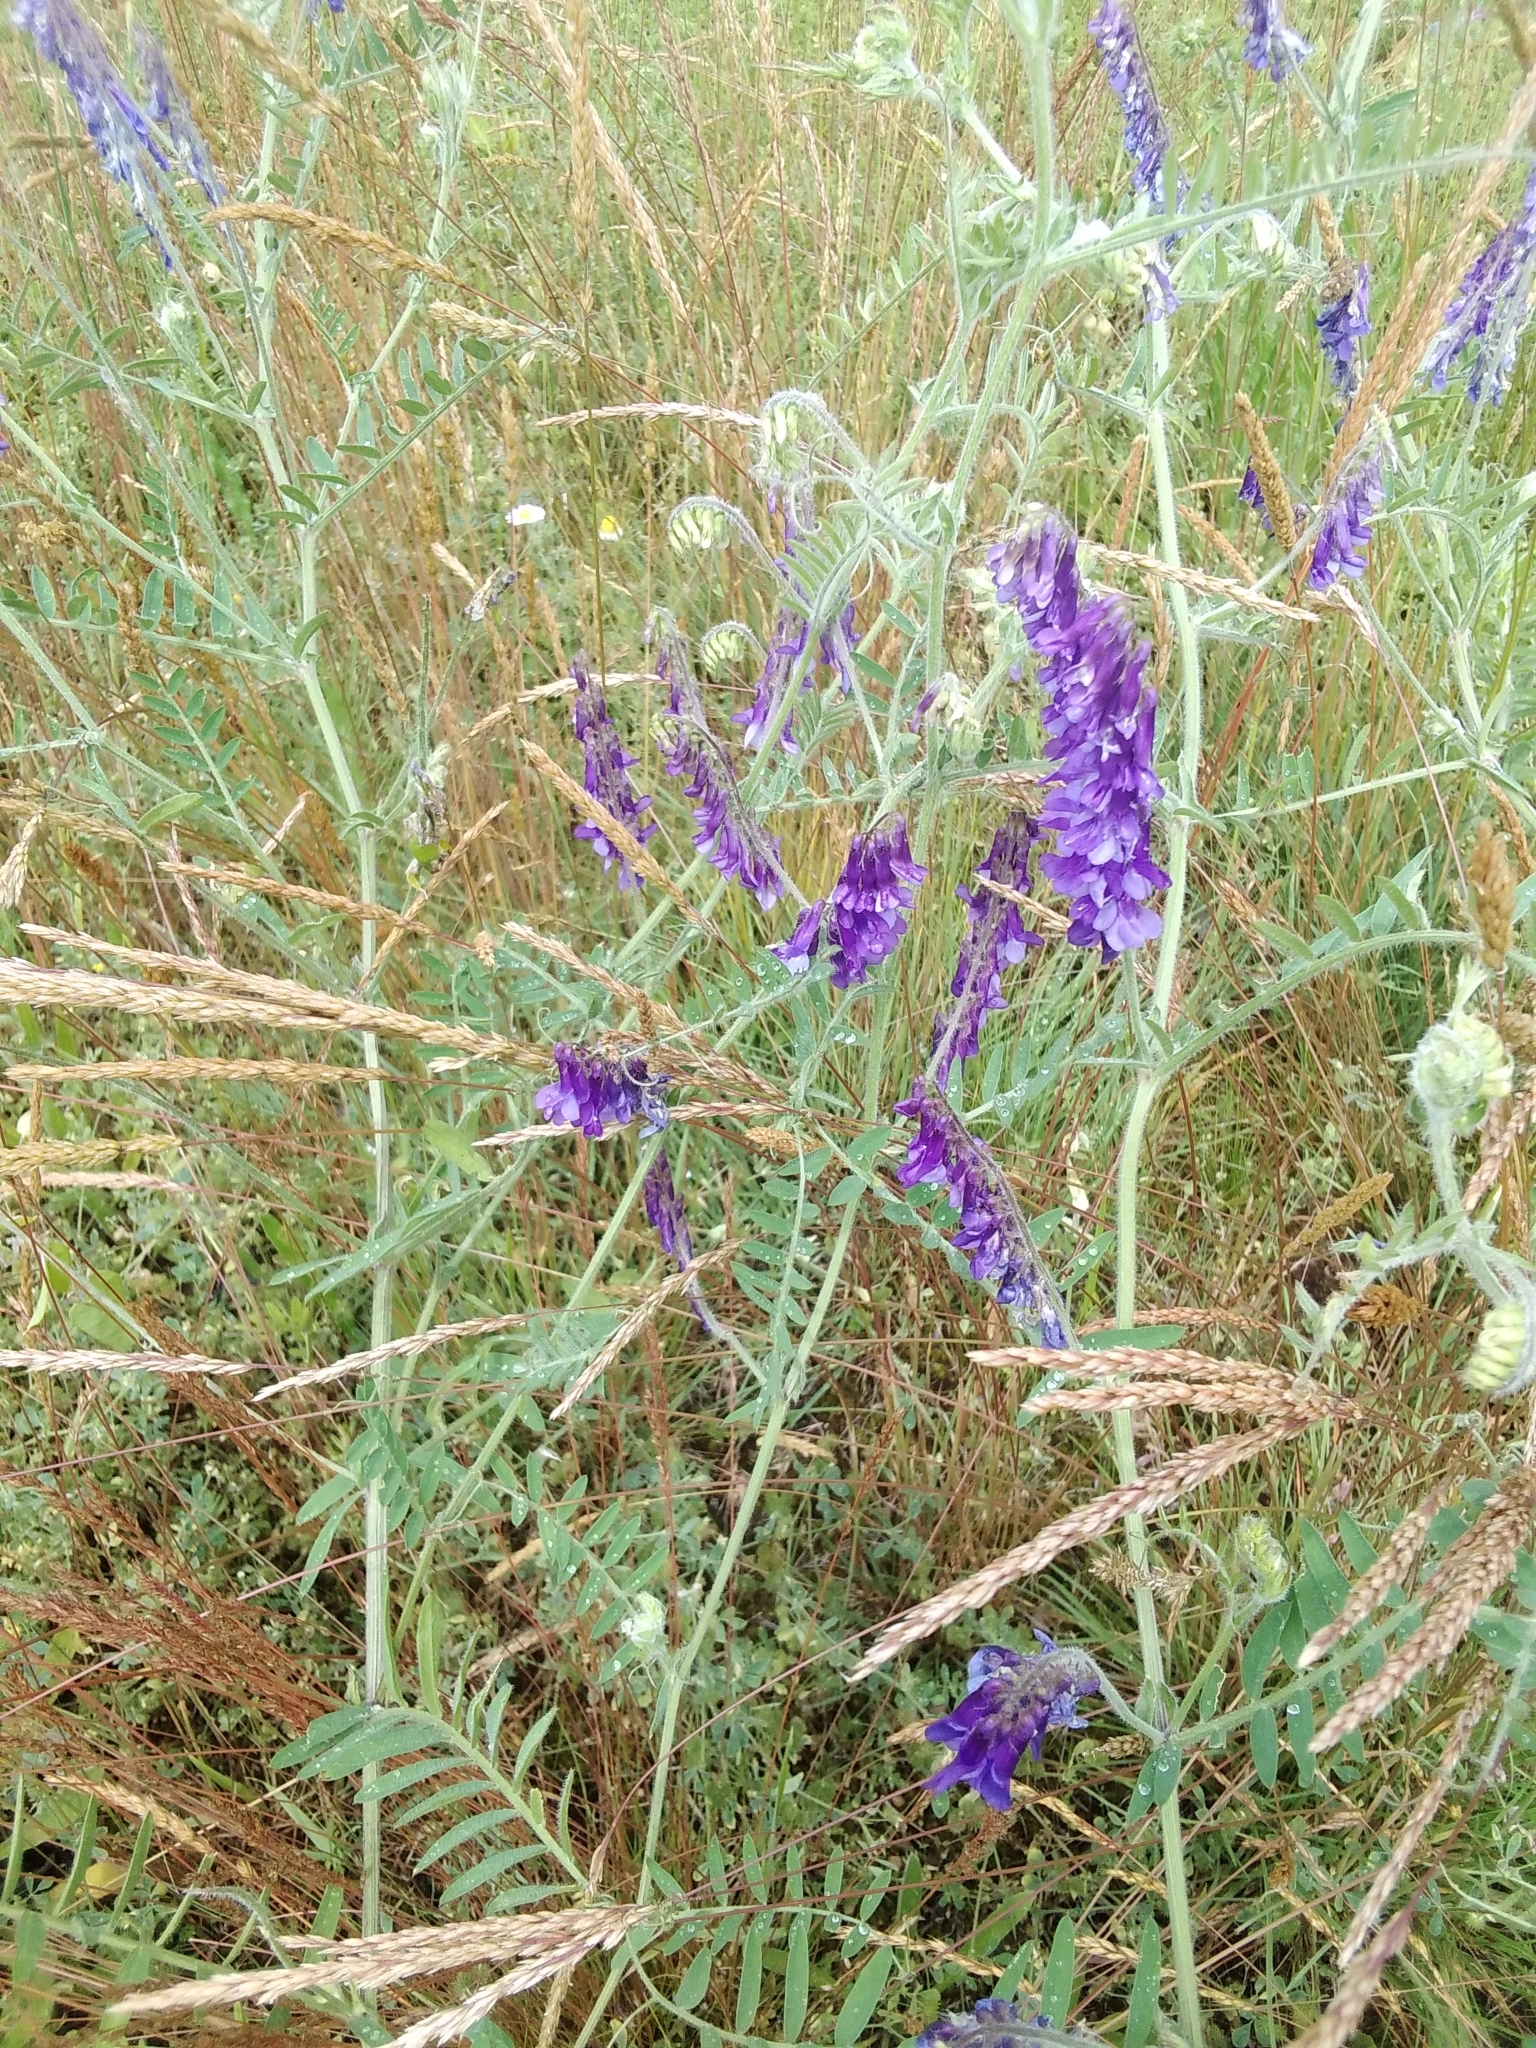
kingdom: Plantae
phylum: Tracheophyta
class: Magnoliopsida
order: Fabales
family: Fabaceae
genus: Vicia
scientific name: Vicia villosa
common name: Fodder vetch
